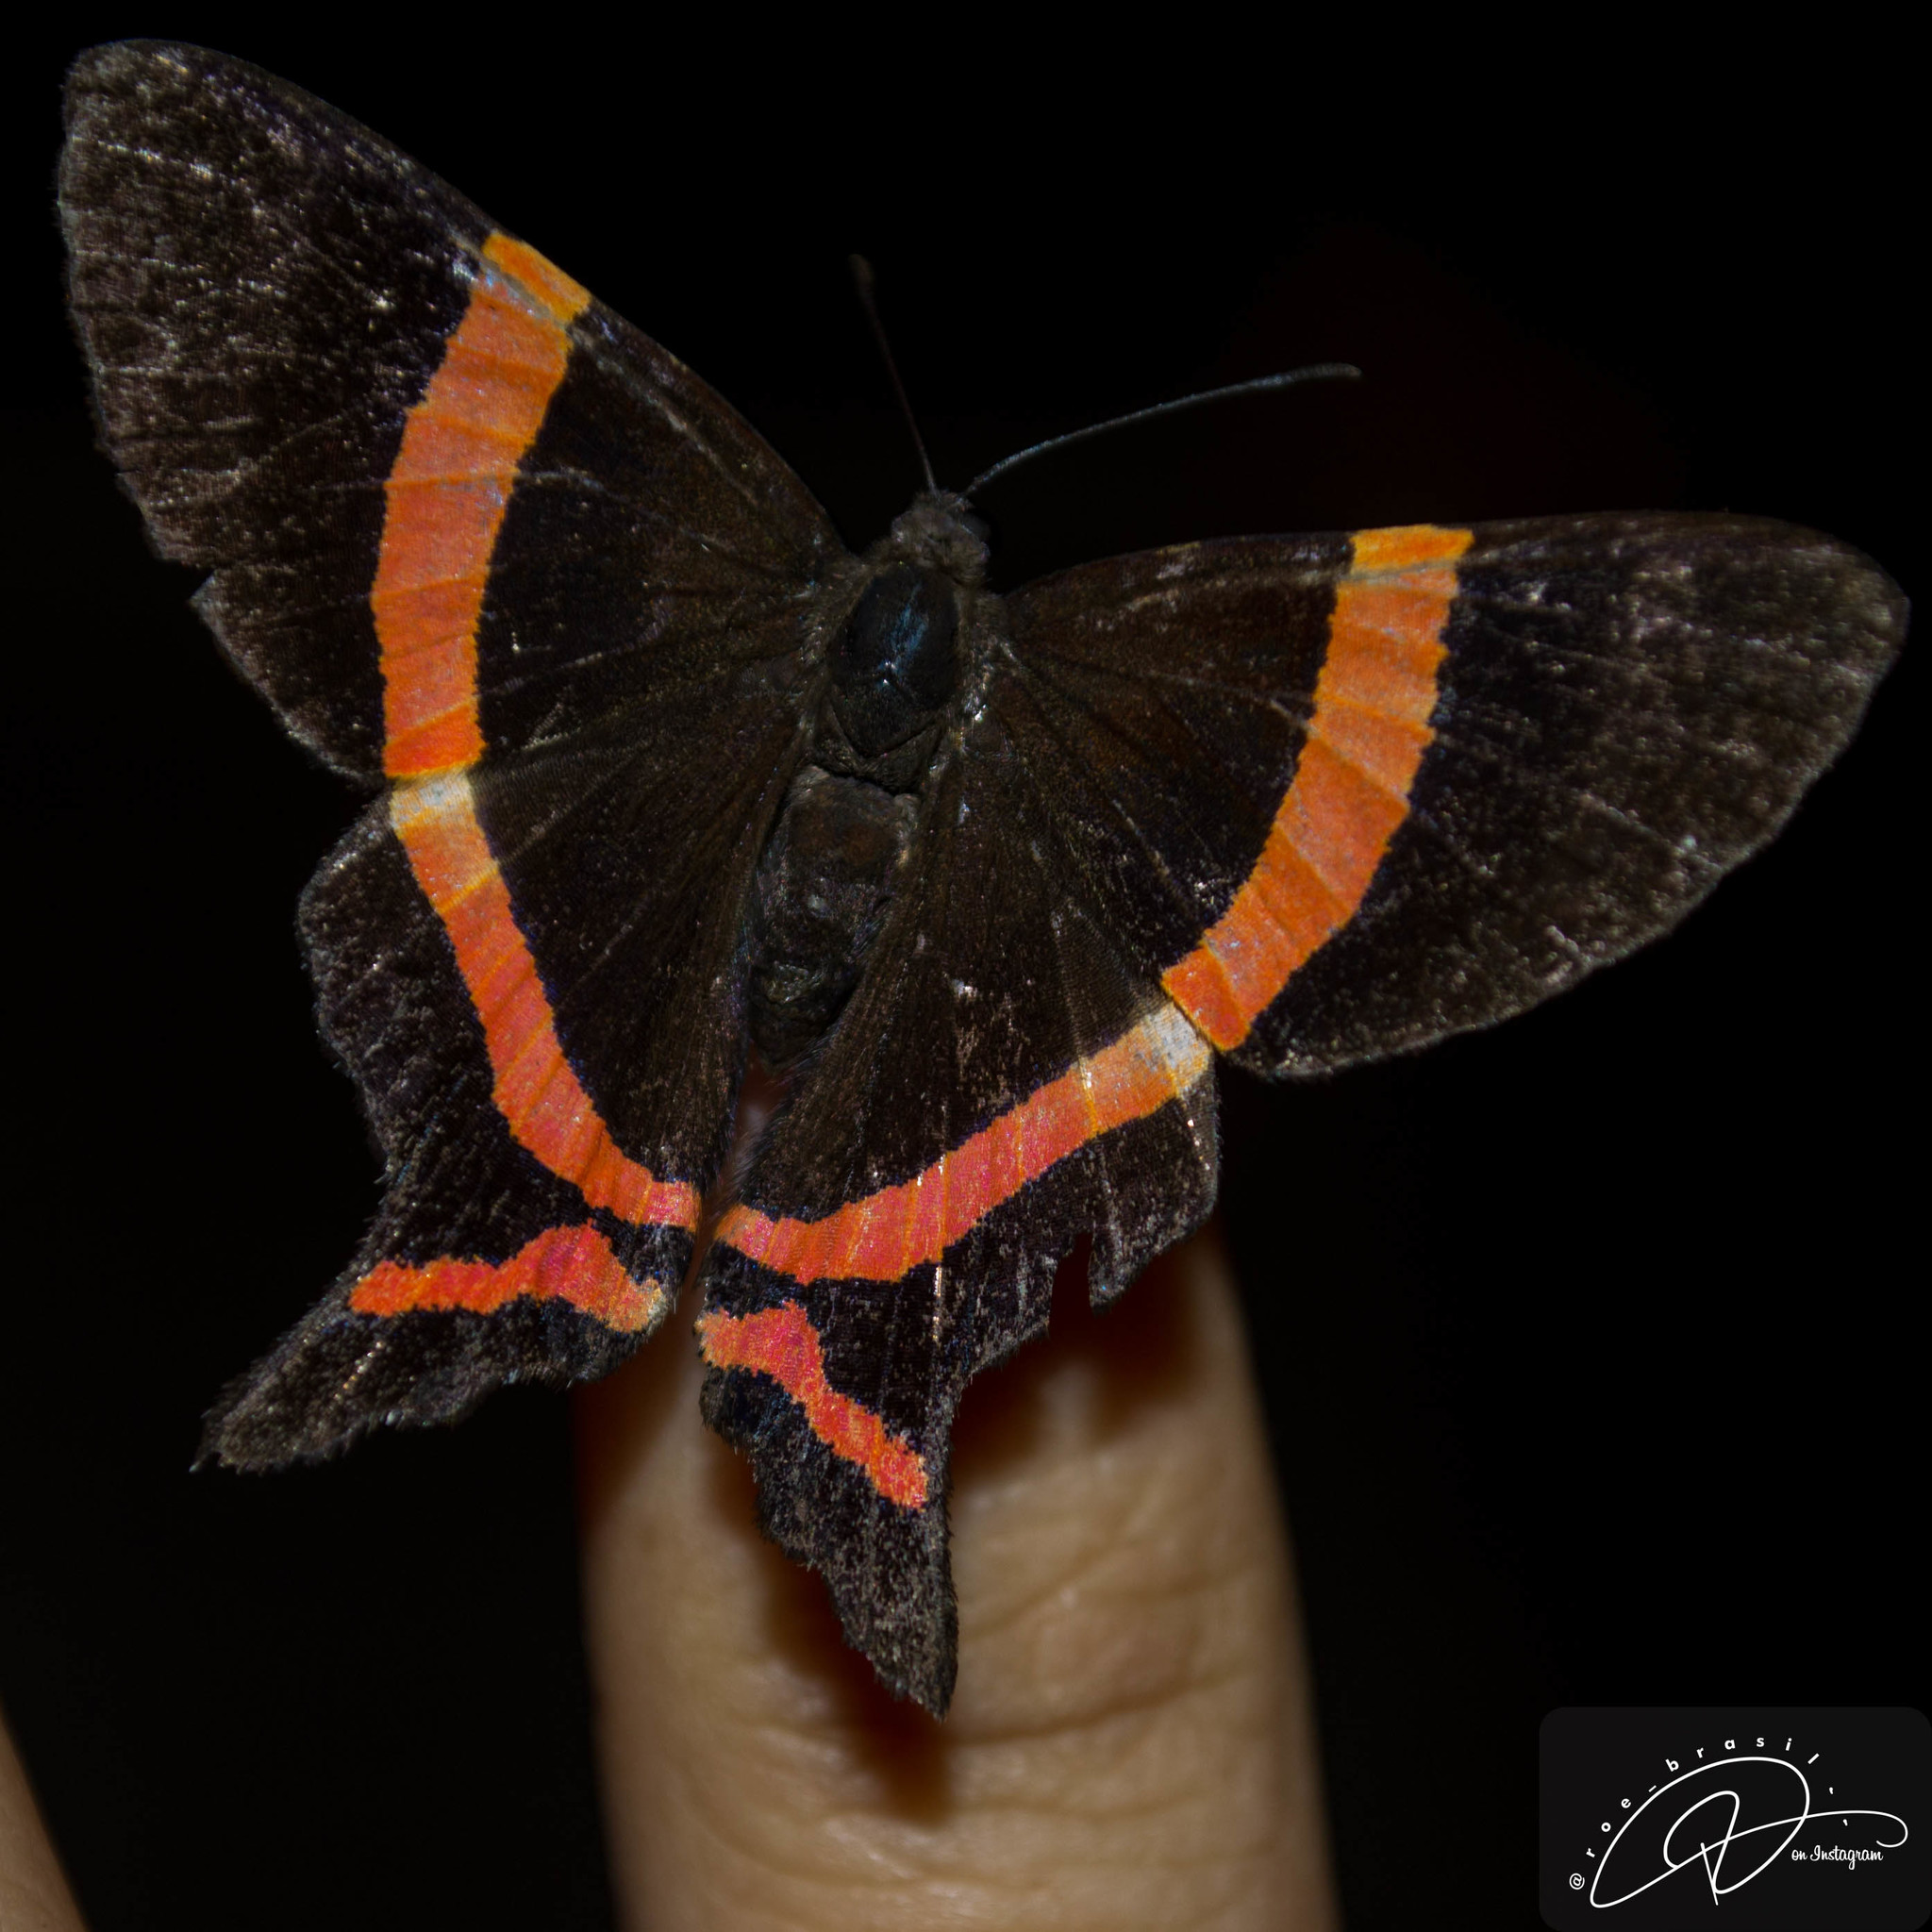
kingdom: Animalia
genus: Ancyluris
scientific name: Ancyluris aulestes
